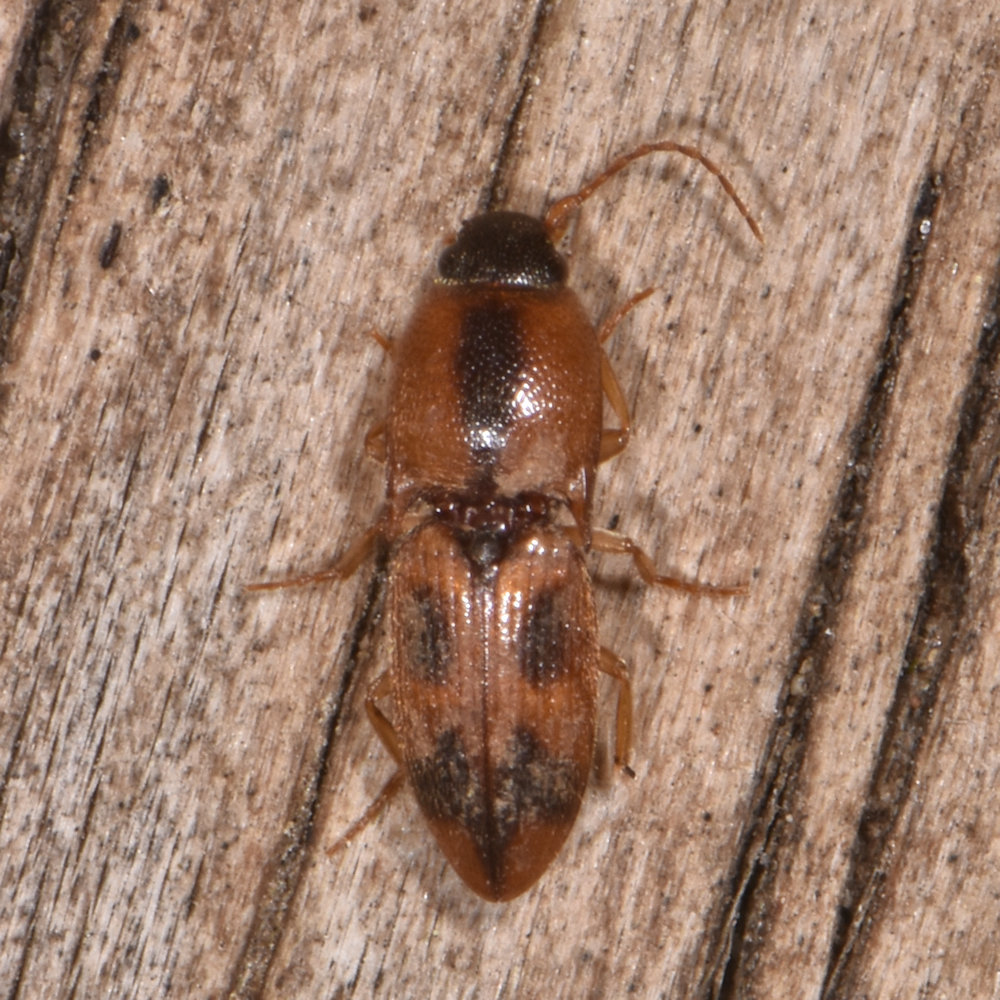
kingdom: Animalia
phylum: Arthropoda
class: Insecta
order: Coleoptera
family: Elateridae
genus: Aeolus
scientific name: Aeolus mellillus
